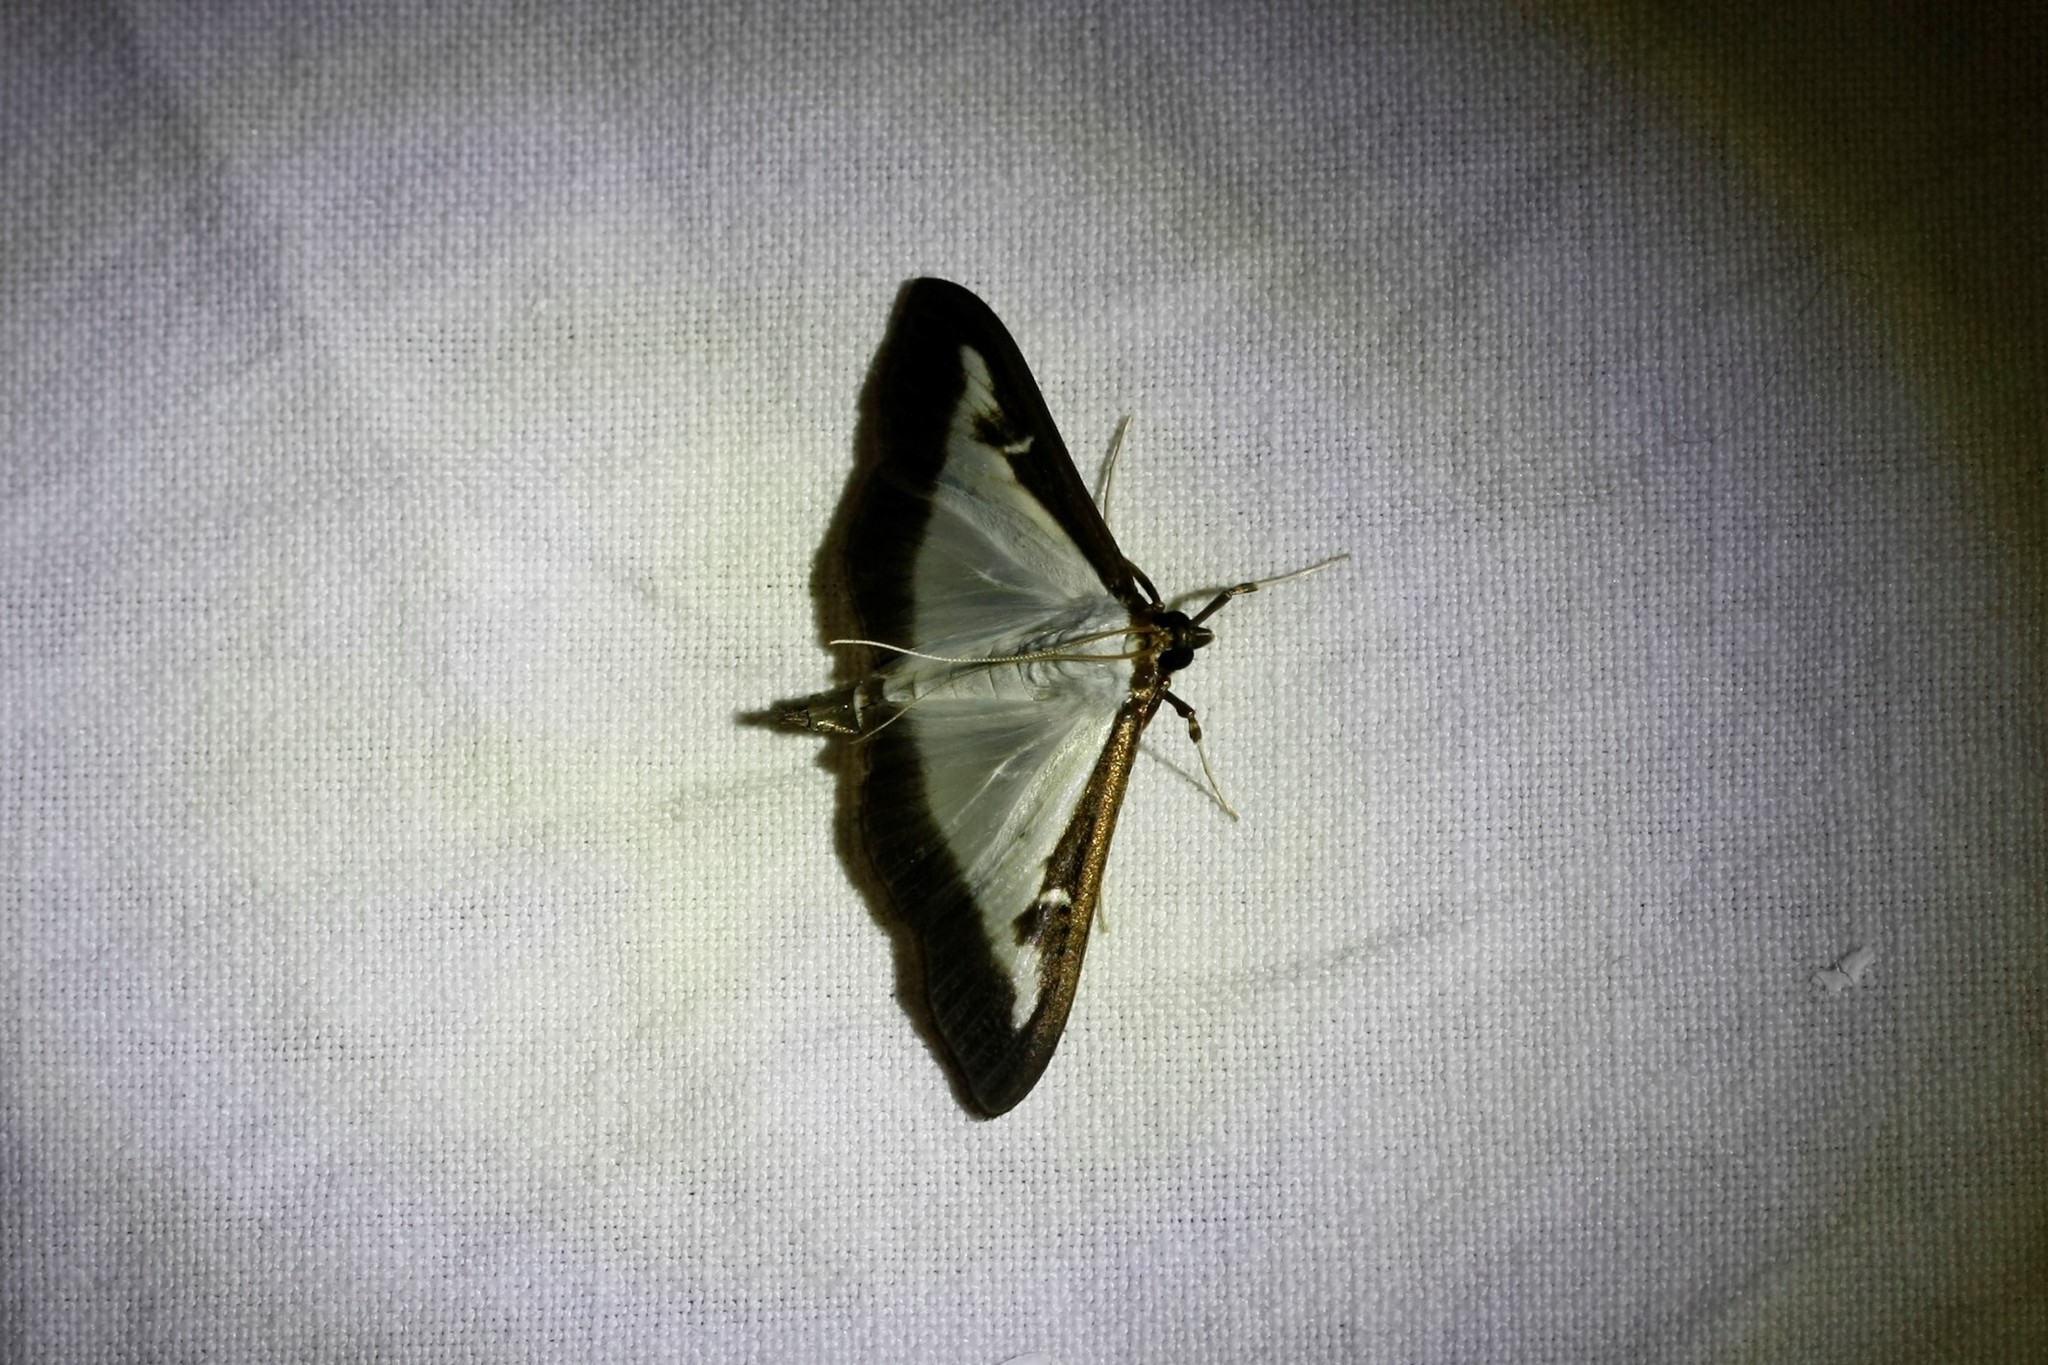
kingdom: Animalia
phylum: Arthropoda
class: Insecta
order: Lepidoptera
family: Crambidae
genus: Cydalima
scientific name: Cydalima perspectalis
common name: Box tree moth
